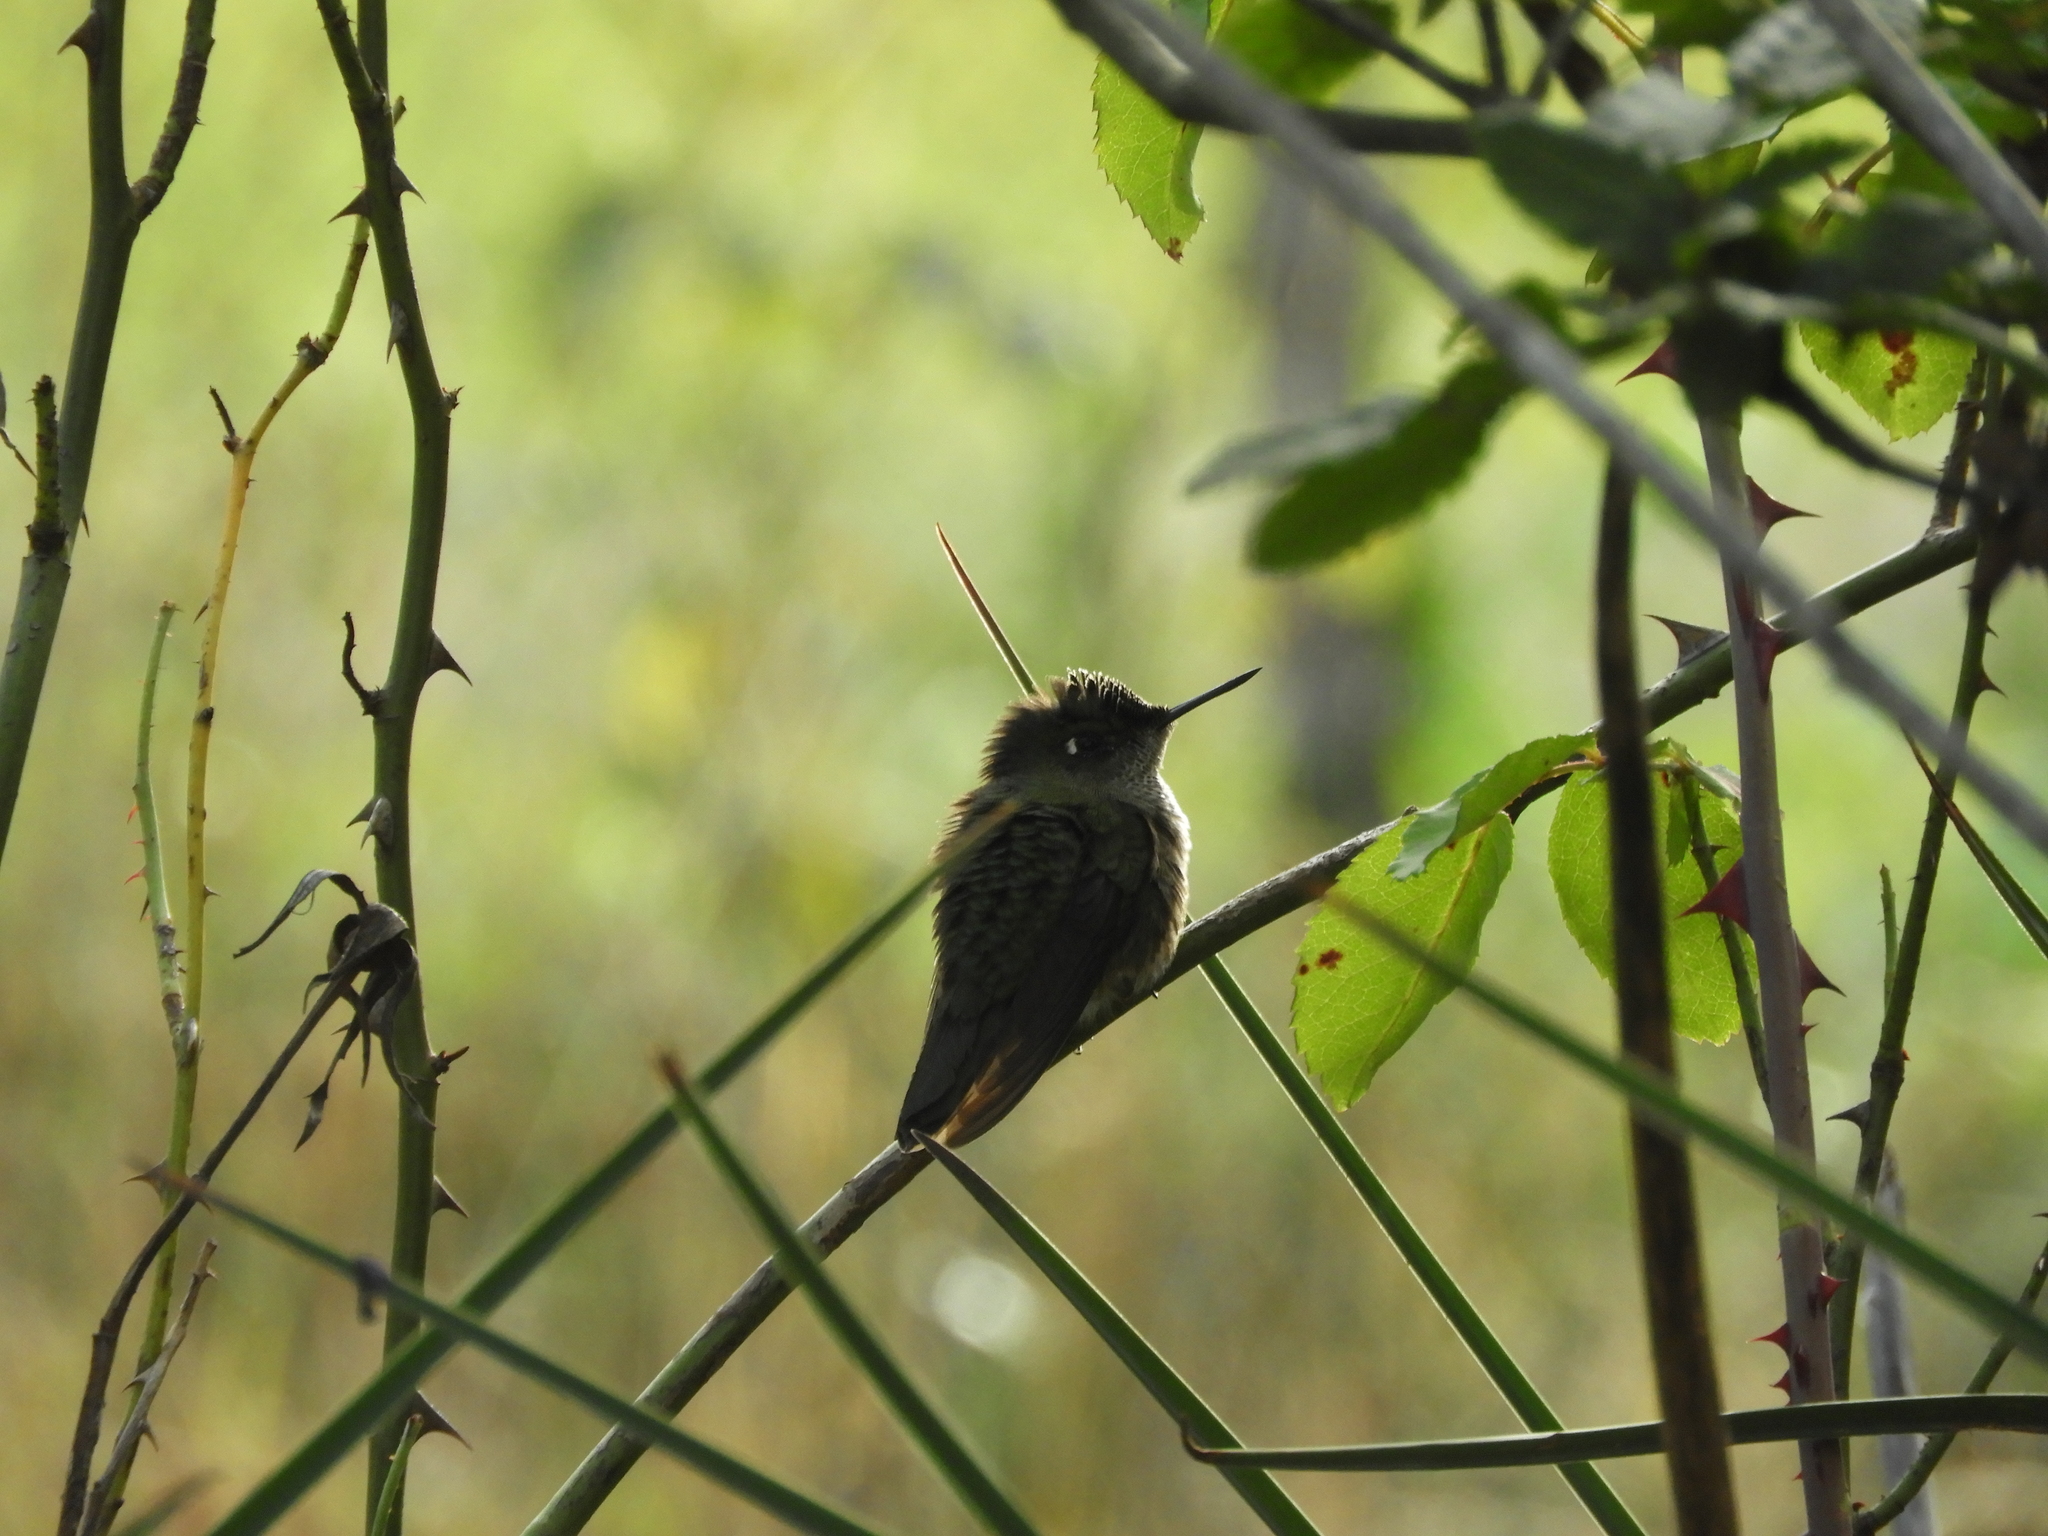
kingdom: Animalia
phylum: Chordata
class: Aves
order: Apodiformes
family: Trochilidae
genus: Sephanoides
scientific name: Sephanoides sephaniodes
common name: Green-backed firecrown
